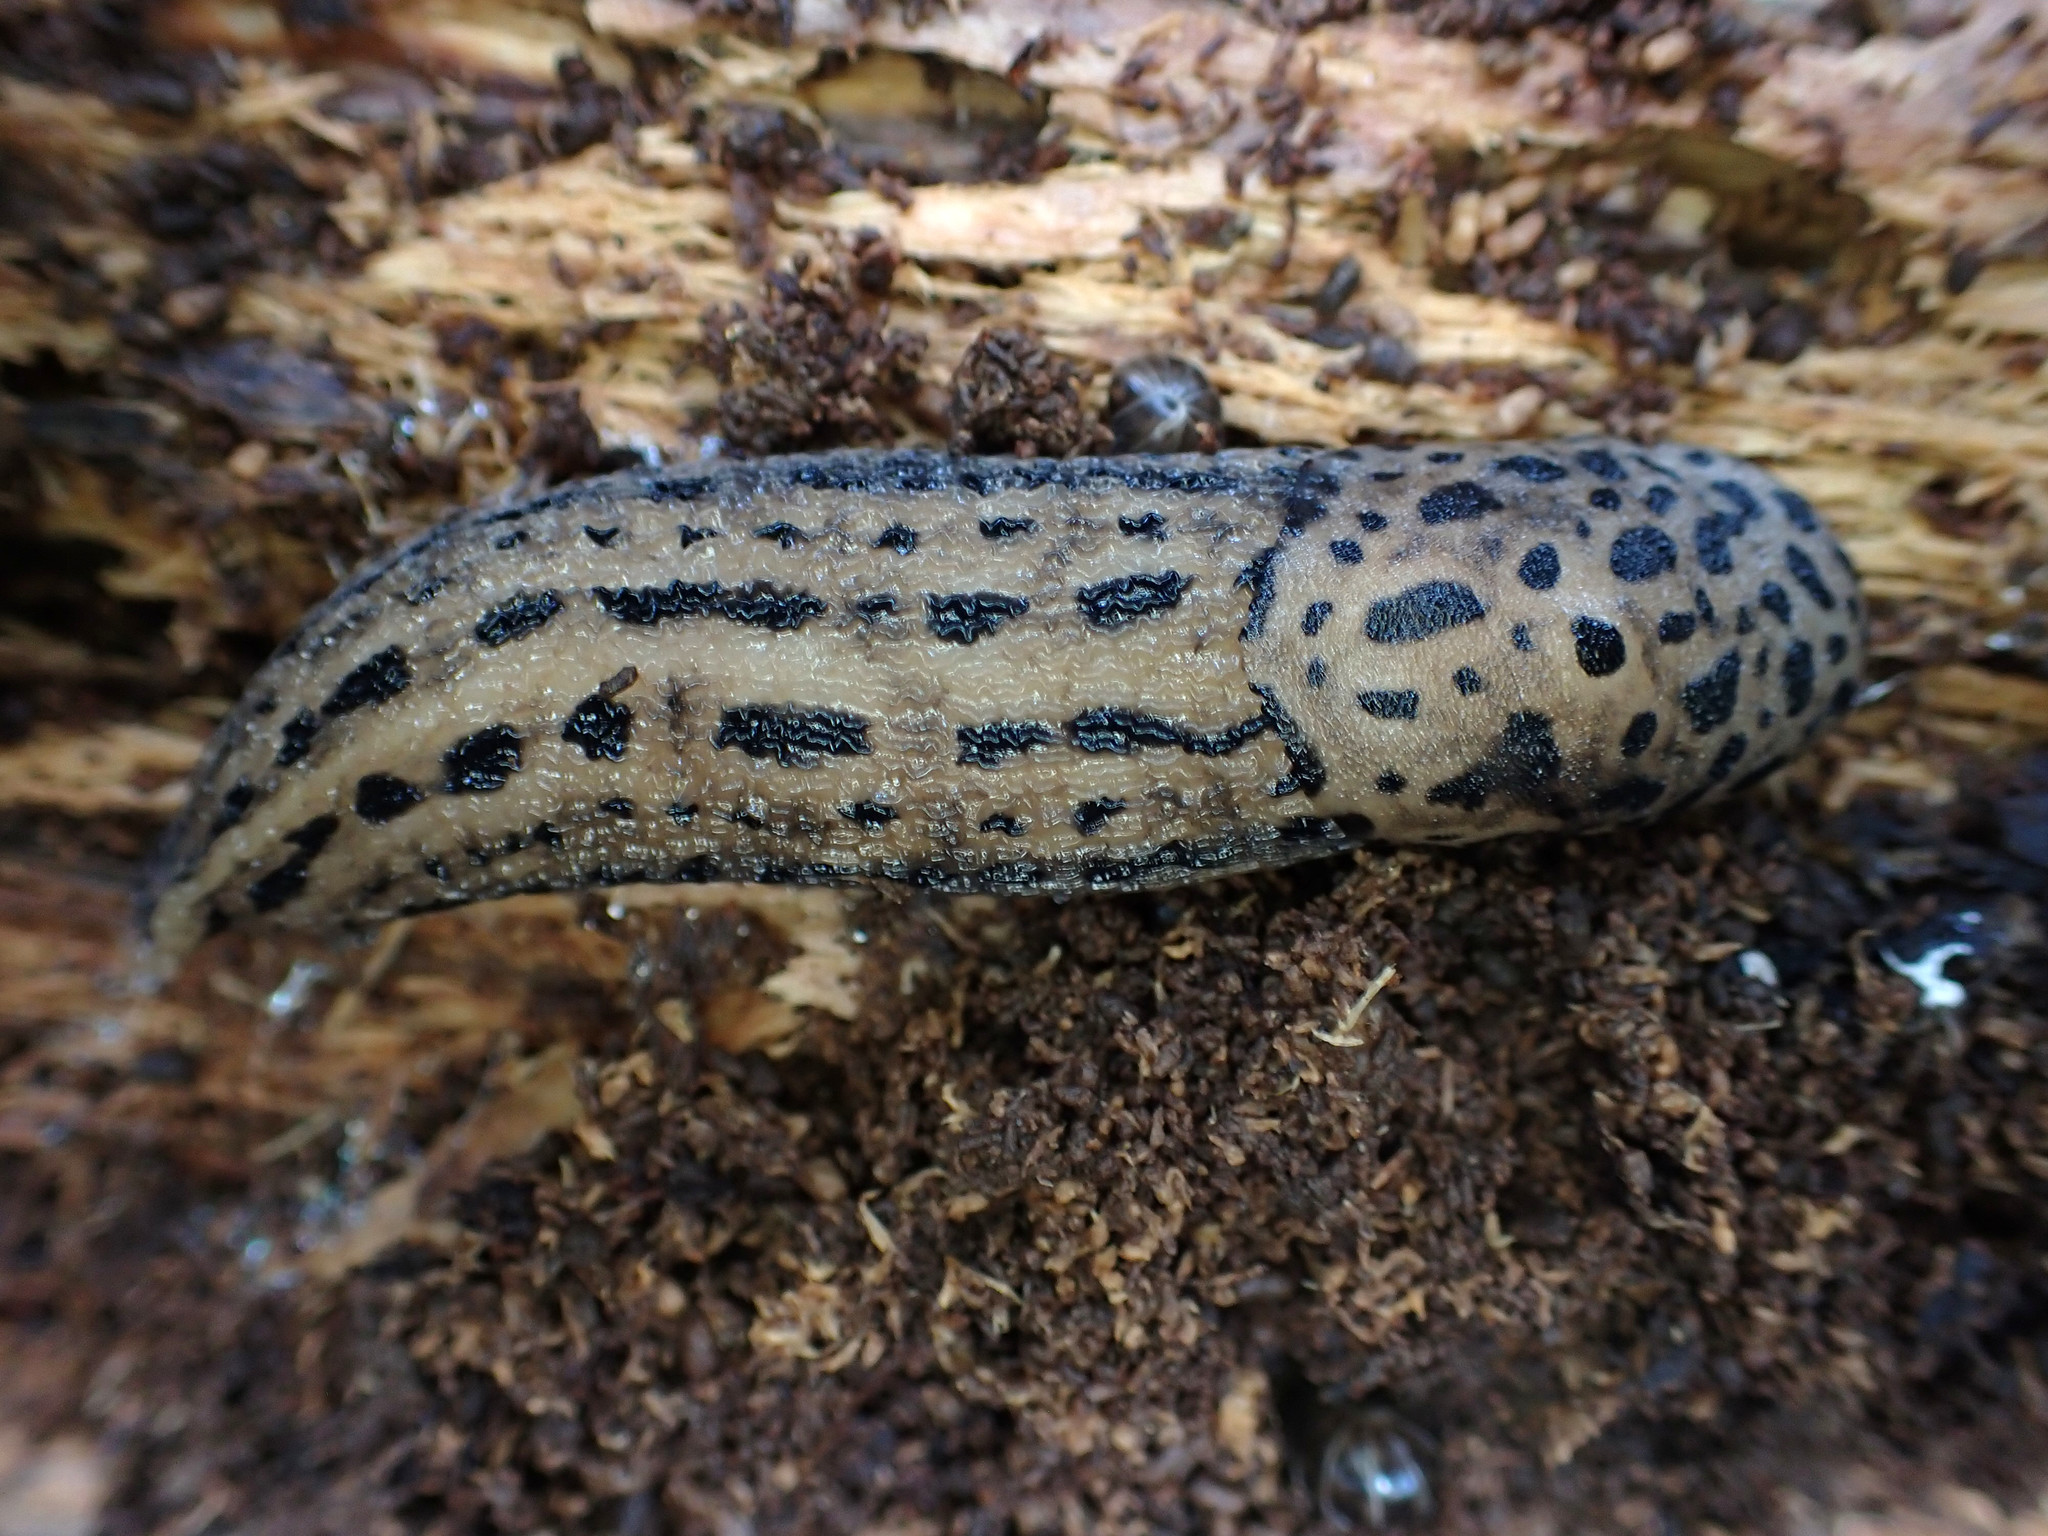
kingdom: Animalia
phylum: Mollusca
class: Gastropoda
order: Stylommatophora
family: Limacidae
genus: Limax
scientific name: Limax maximus
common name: Great grey slug
